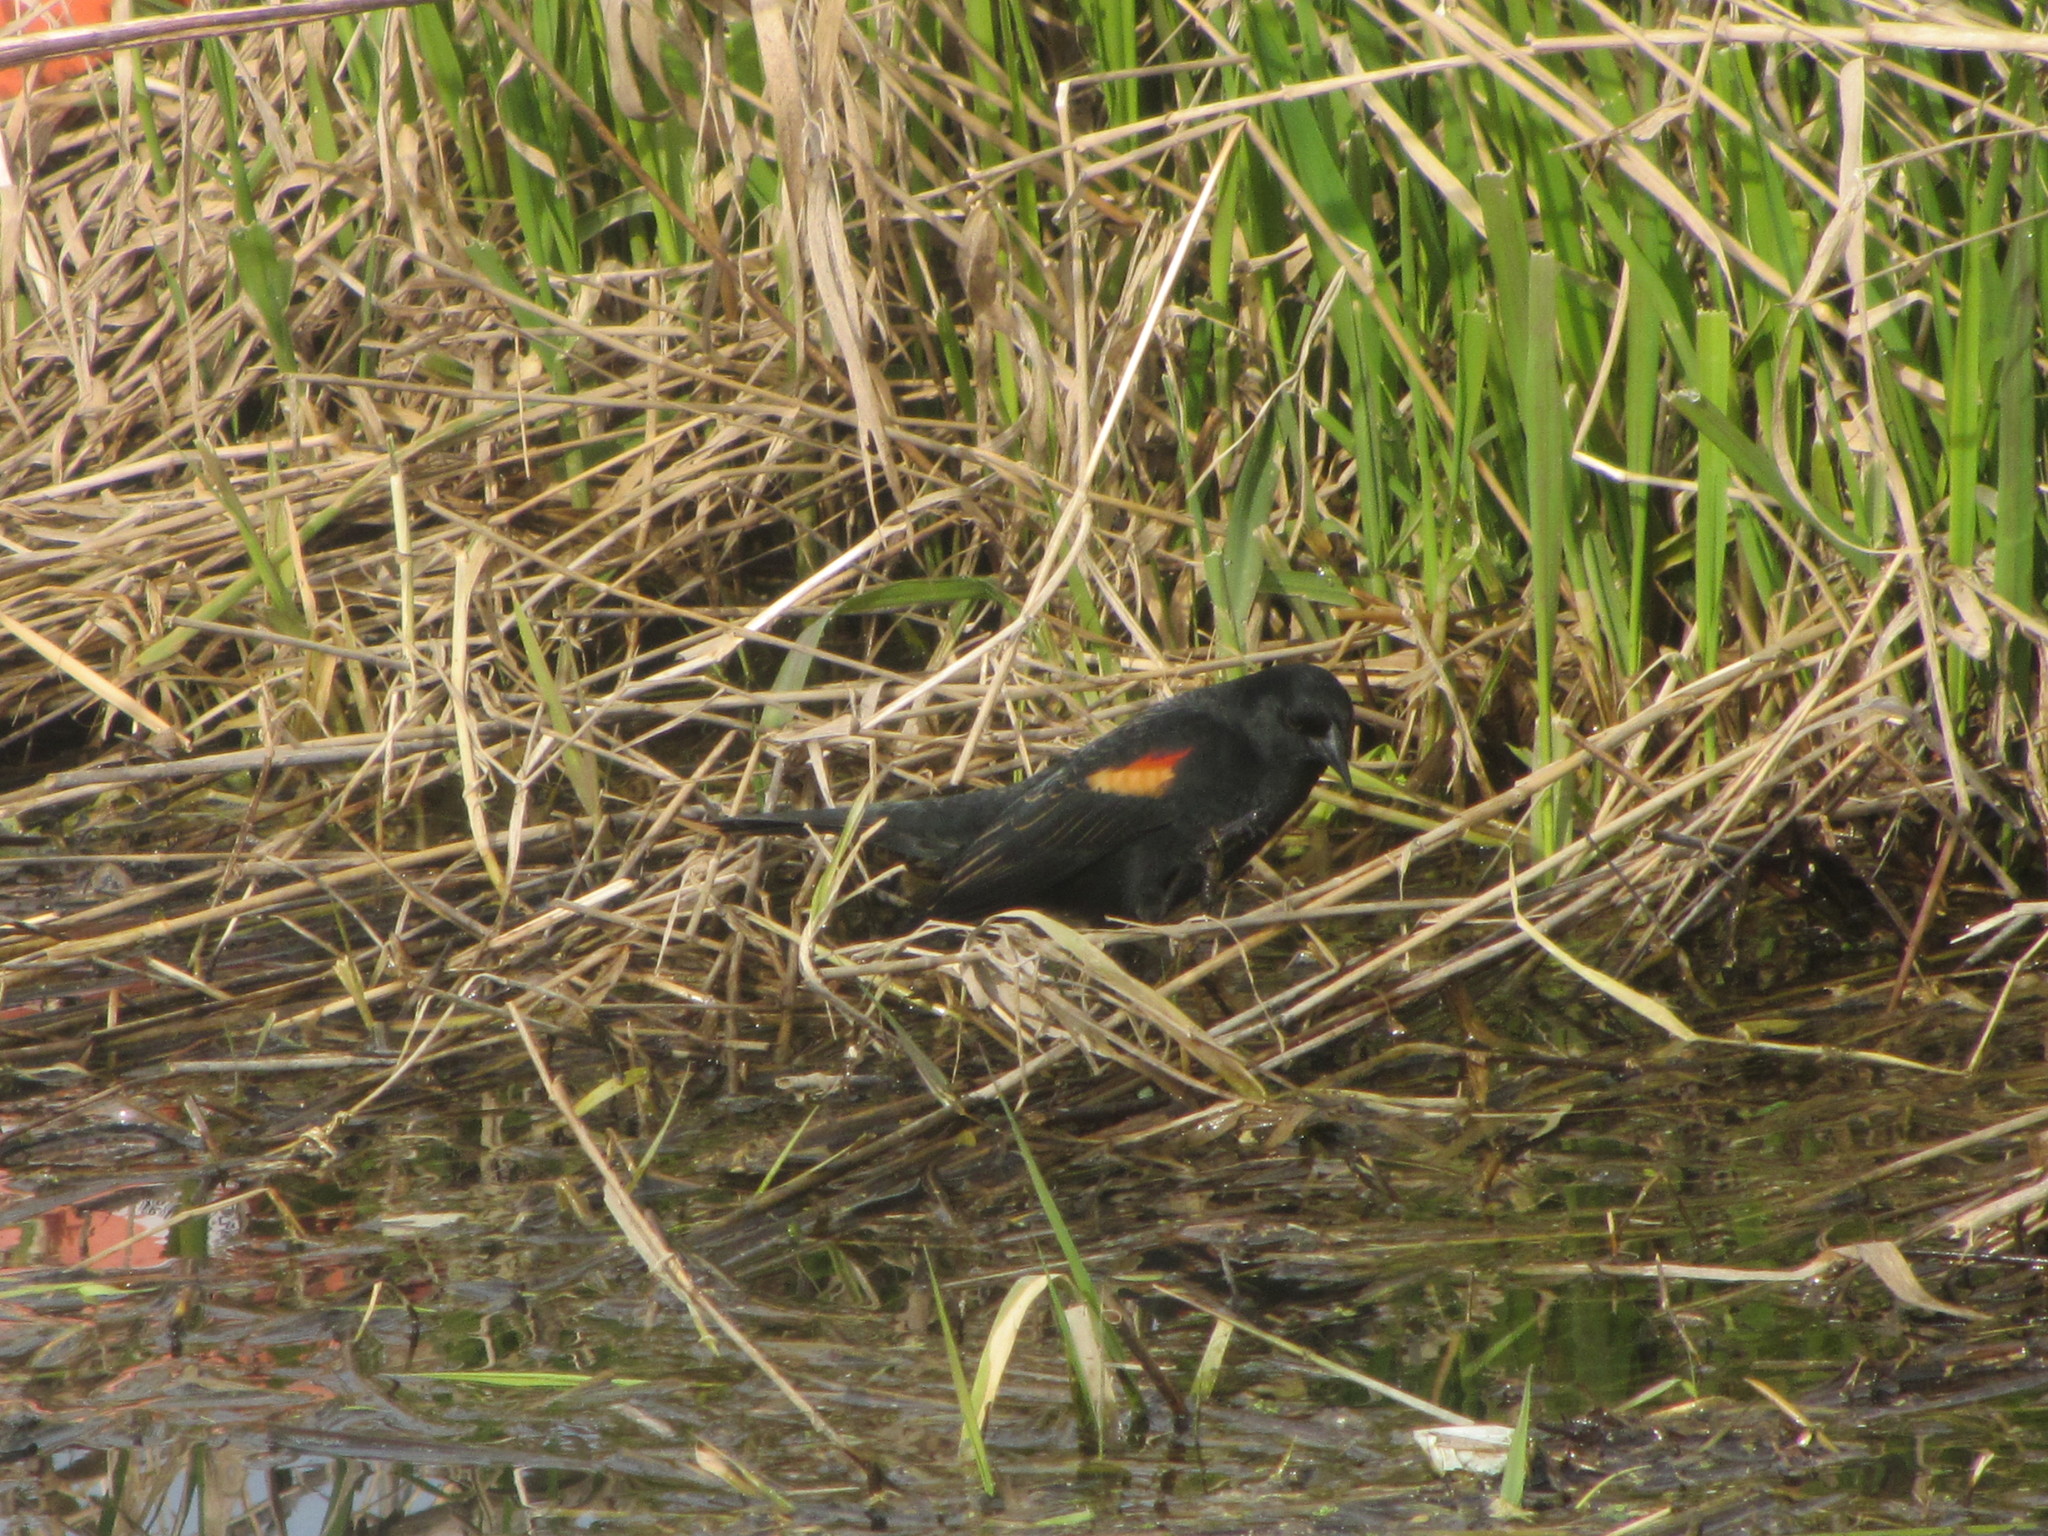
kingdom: Animalia
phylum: Chordata
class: Aves
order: Passeriformes
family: Icteridae
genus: Agelaius
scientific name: Agelaius phoeniceus
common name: Red-winged blackbird
